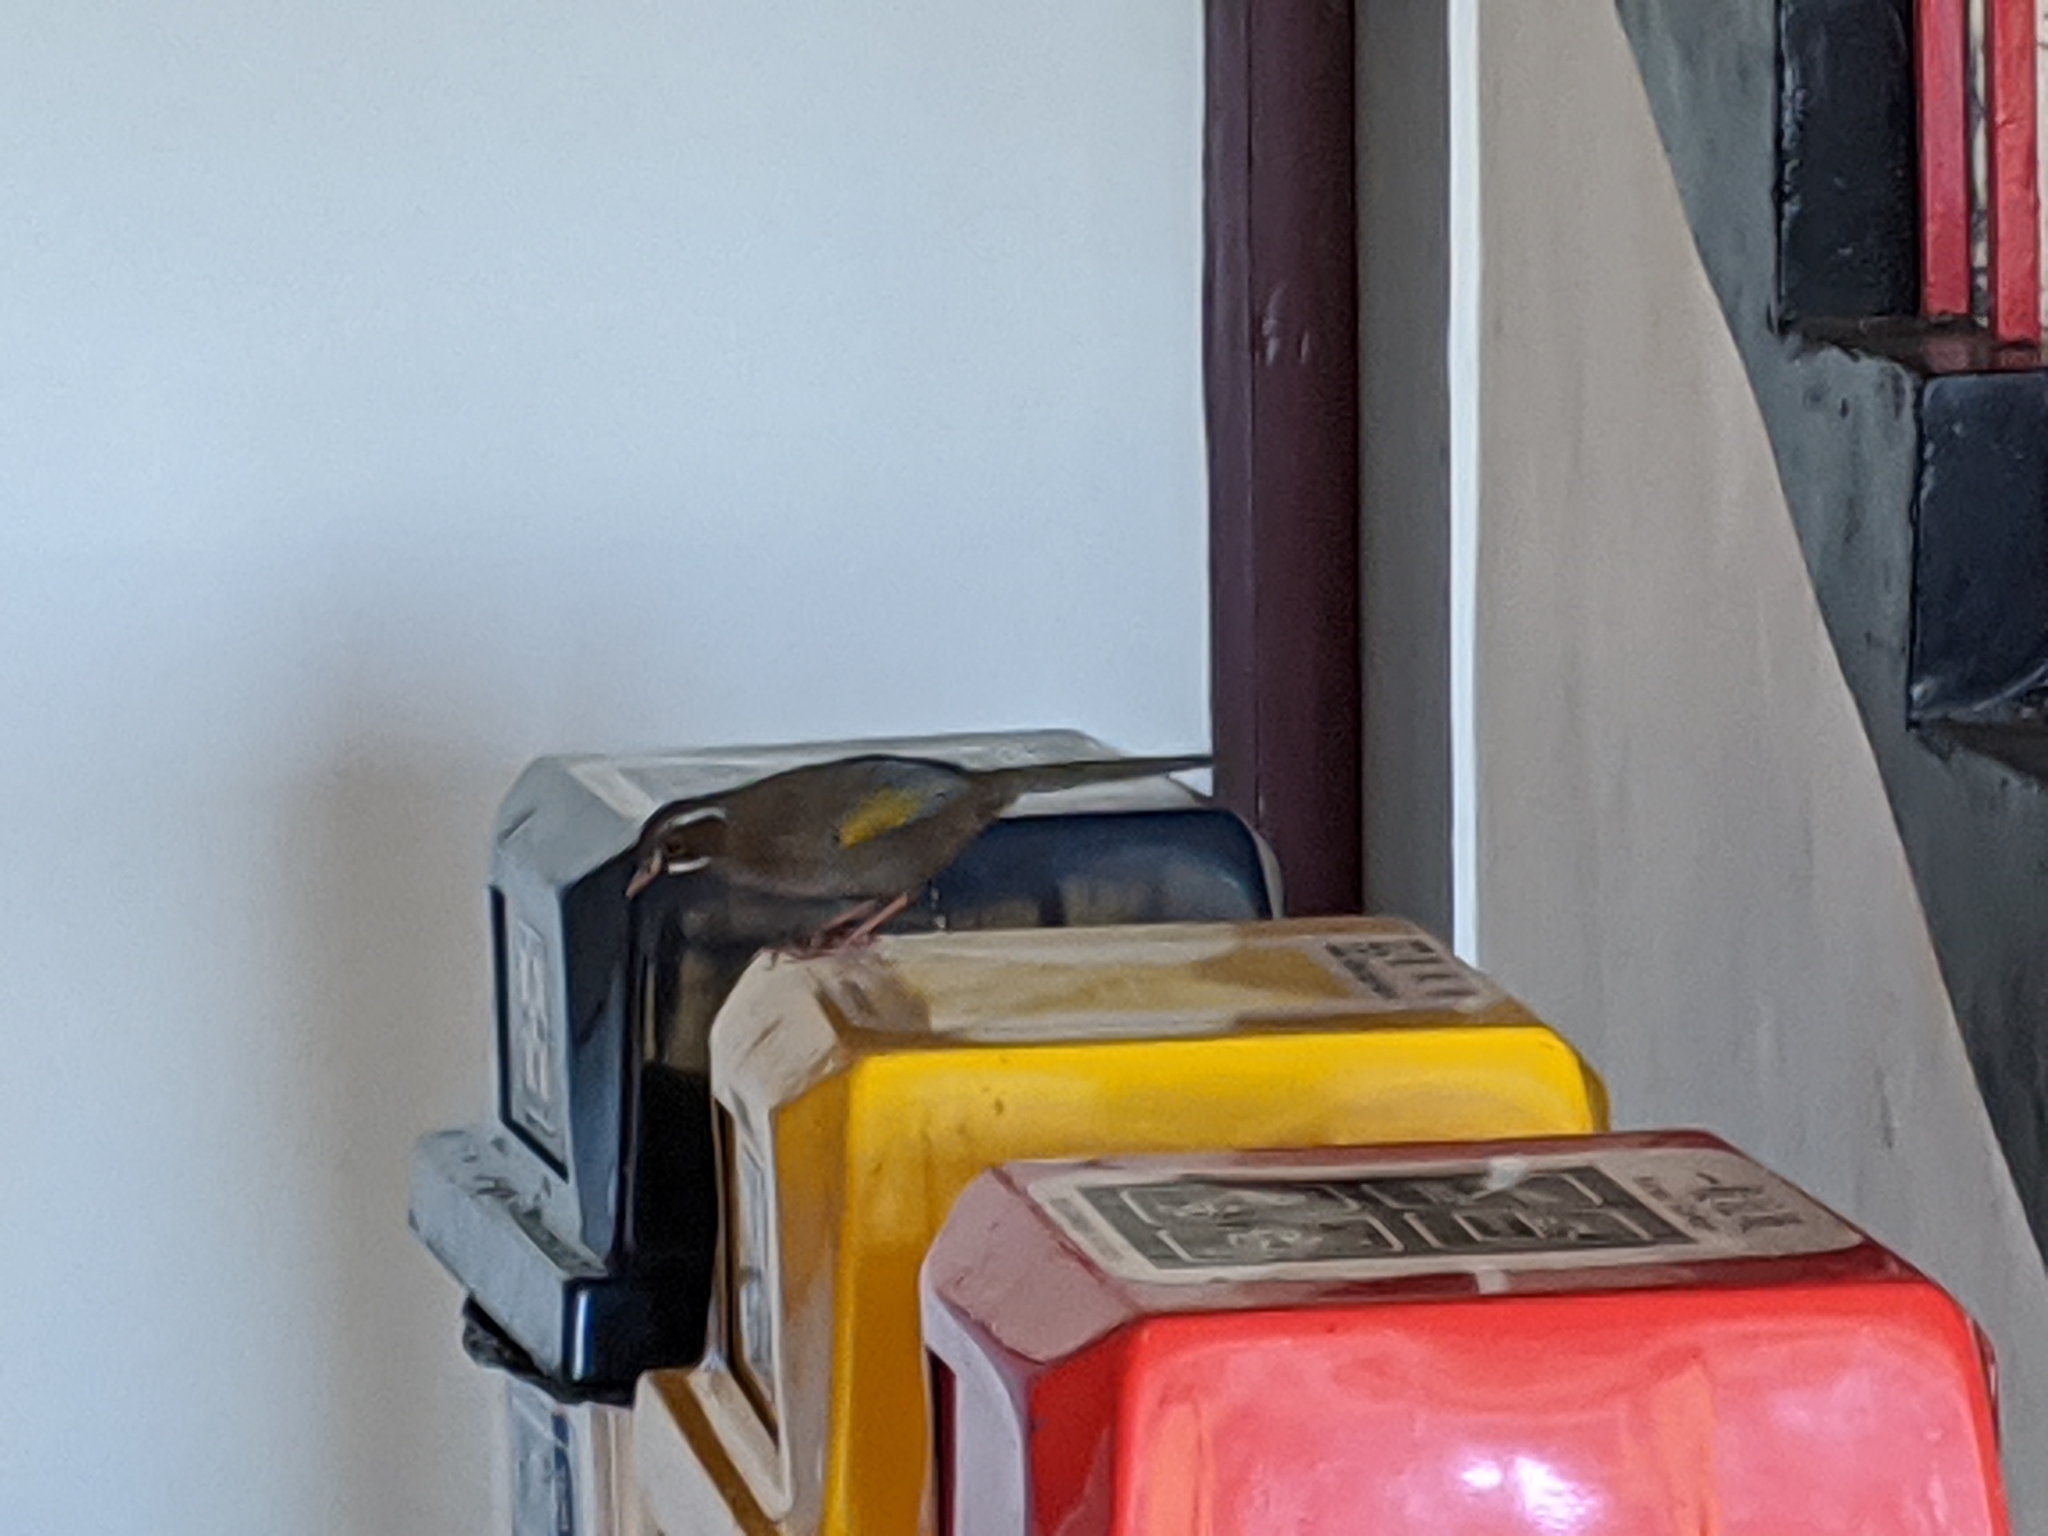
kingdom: Animalia
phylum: Chordata
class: Aves
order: Passeriformes
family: Leiothrichidae
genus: Trochalopteron
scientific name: Trochalopteron morrisonianum
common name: White-whiskered laughingthrush
